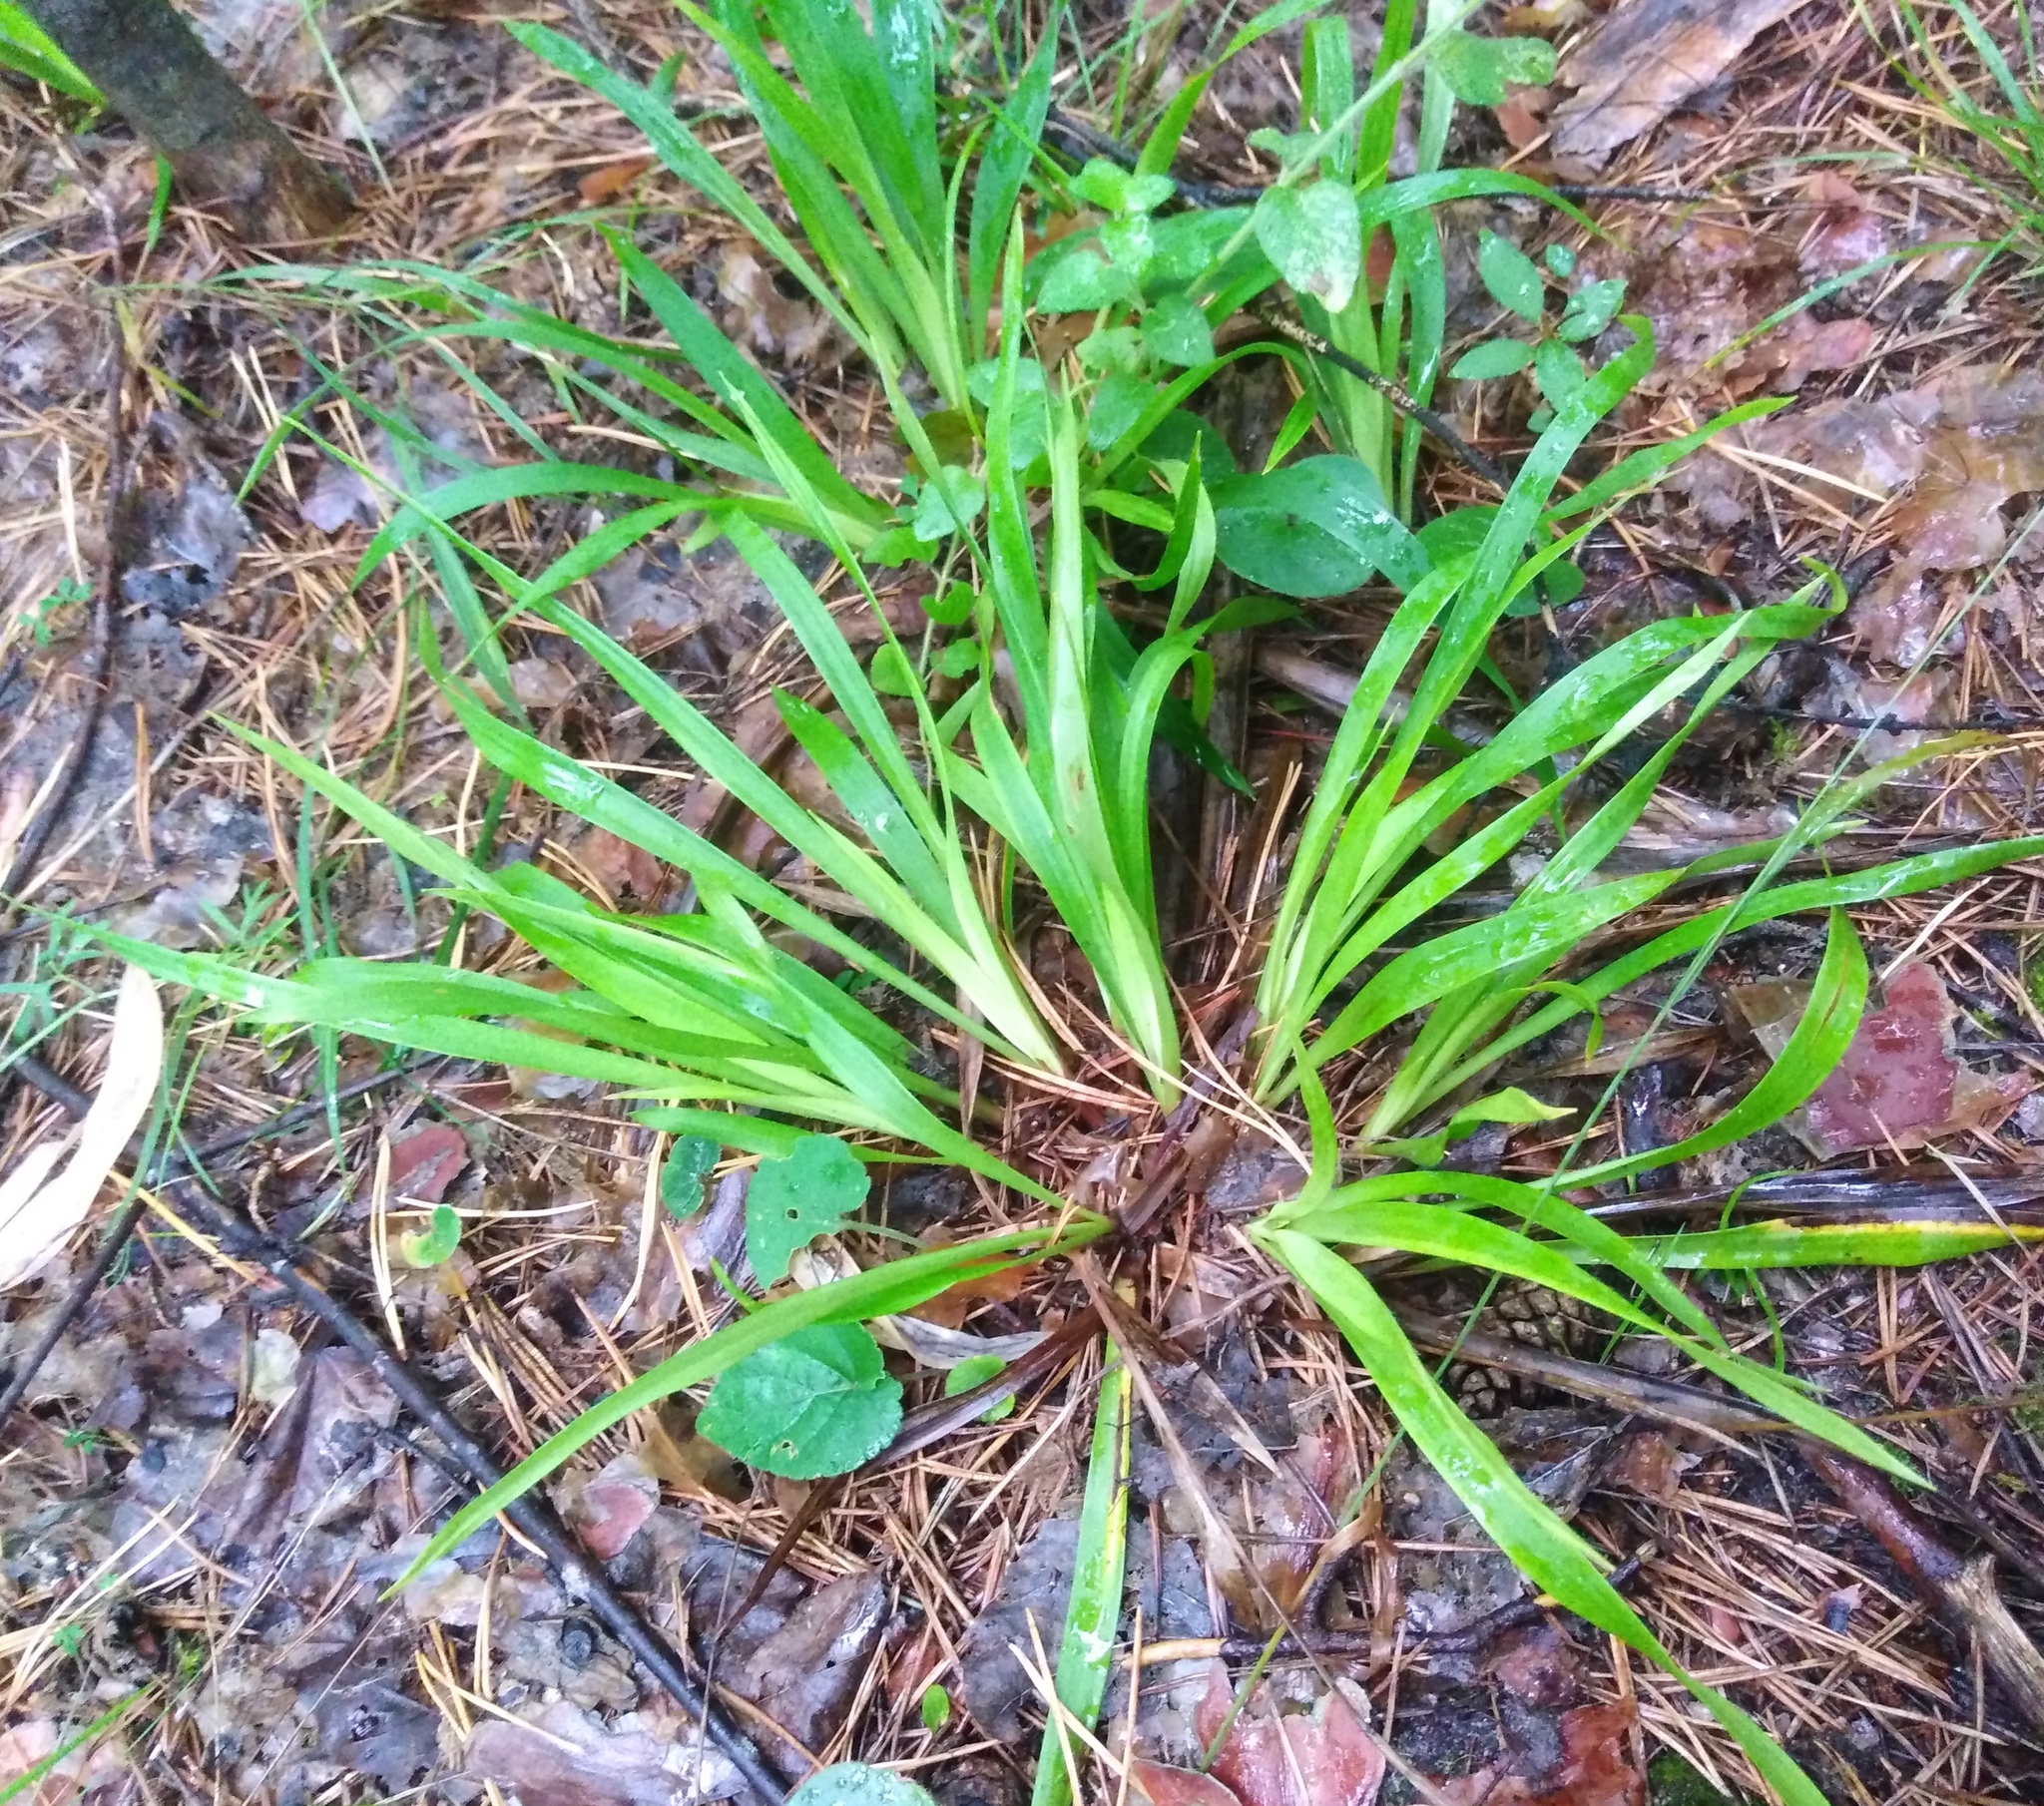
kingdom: Plantae
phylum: Tracheophyta
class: Liliopsida
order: Poales
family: Juncaceae
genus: Luzula
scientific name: Luzula pilosa
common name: Hairy wood-rush
